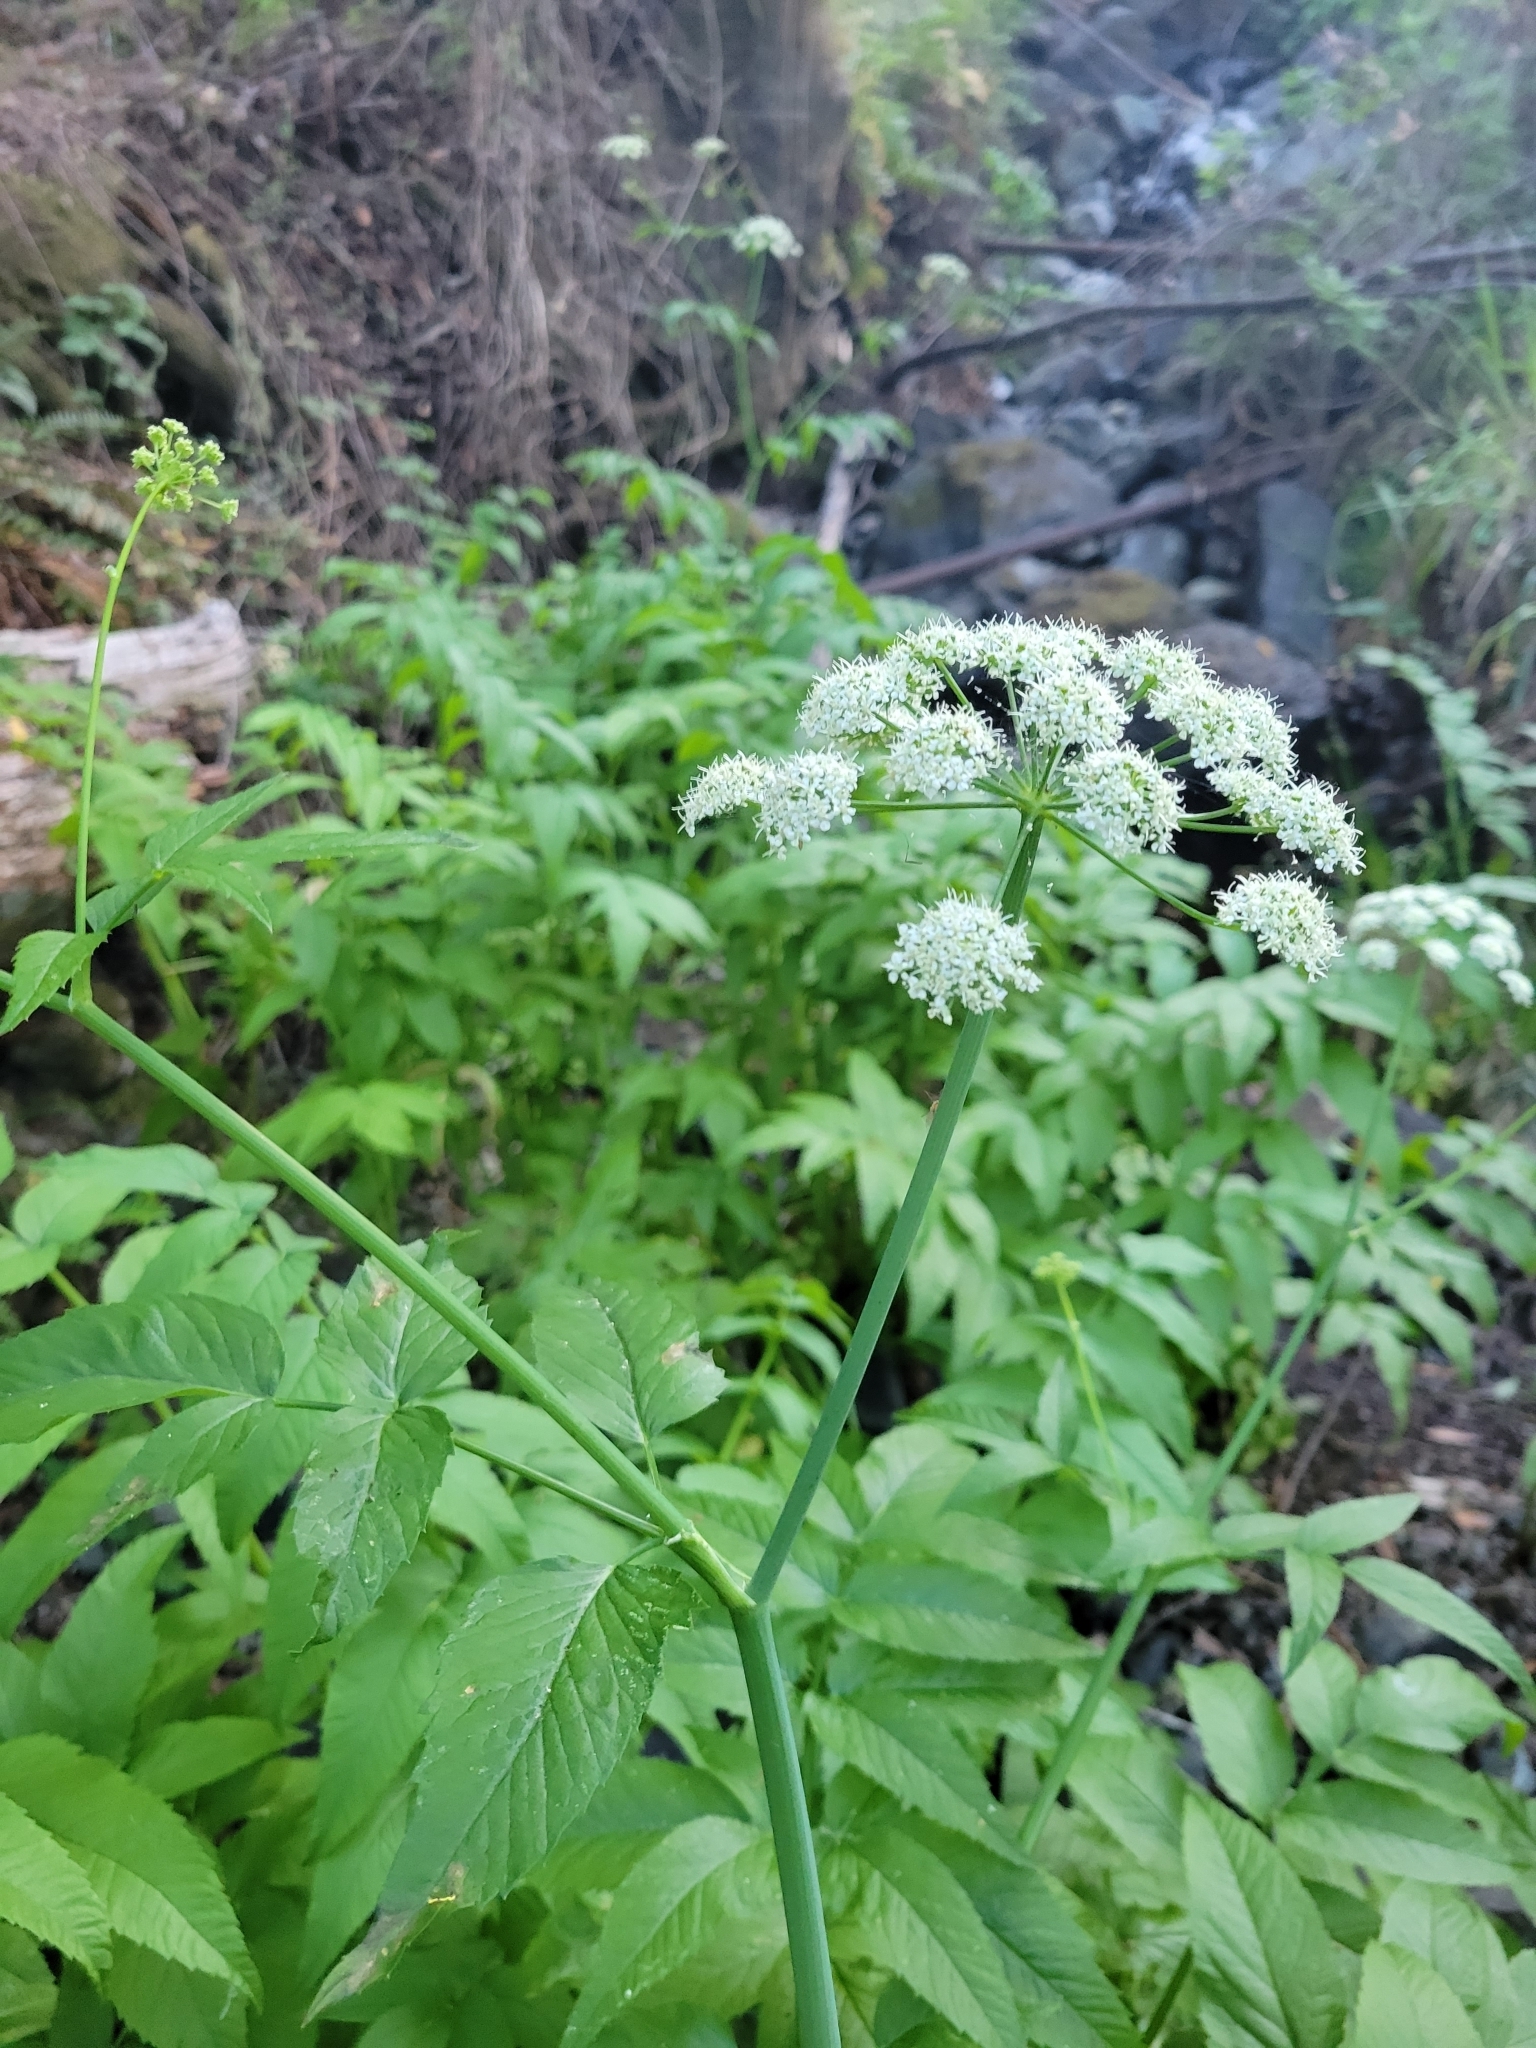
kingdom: Plantae
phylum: Tracheophyta
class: Magnoliopsida
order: Apiales
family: Apiaceae
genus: Cicuta
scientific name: Cicuta douglasii
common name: Western water-hemlock
